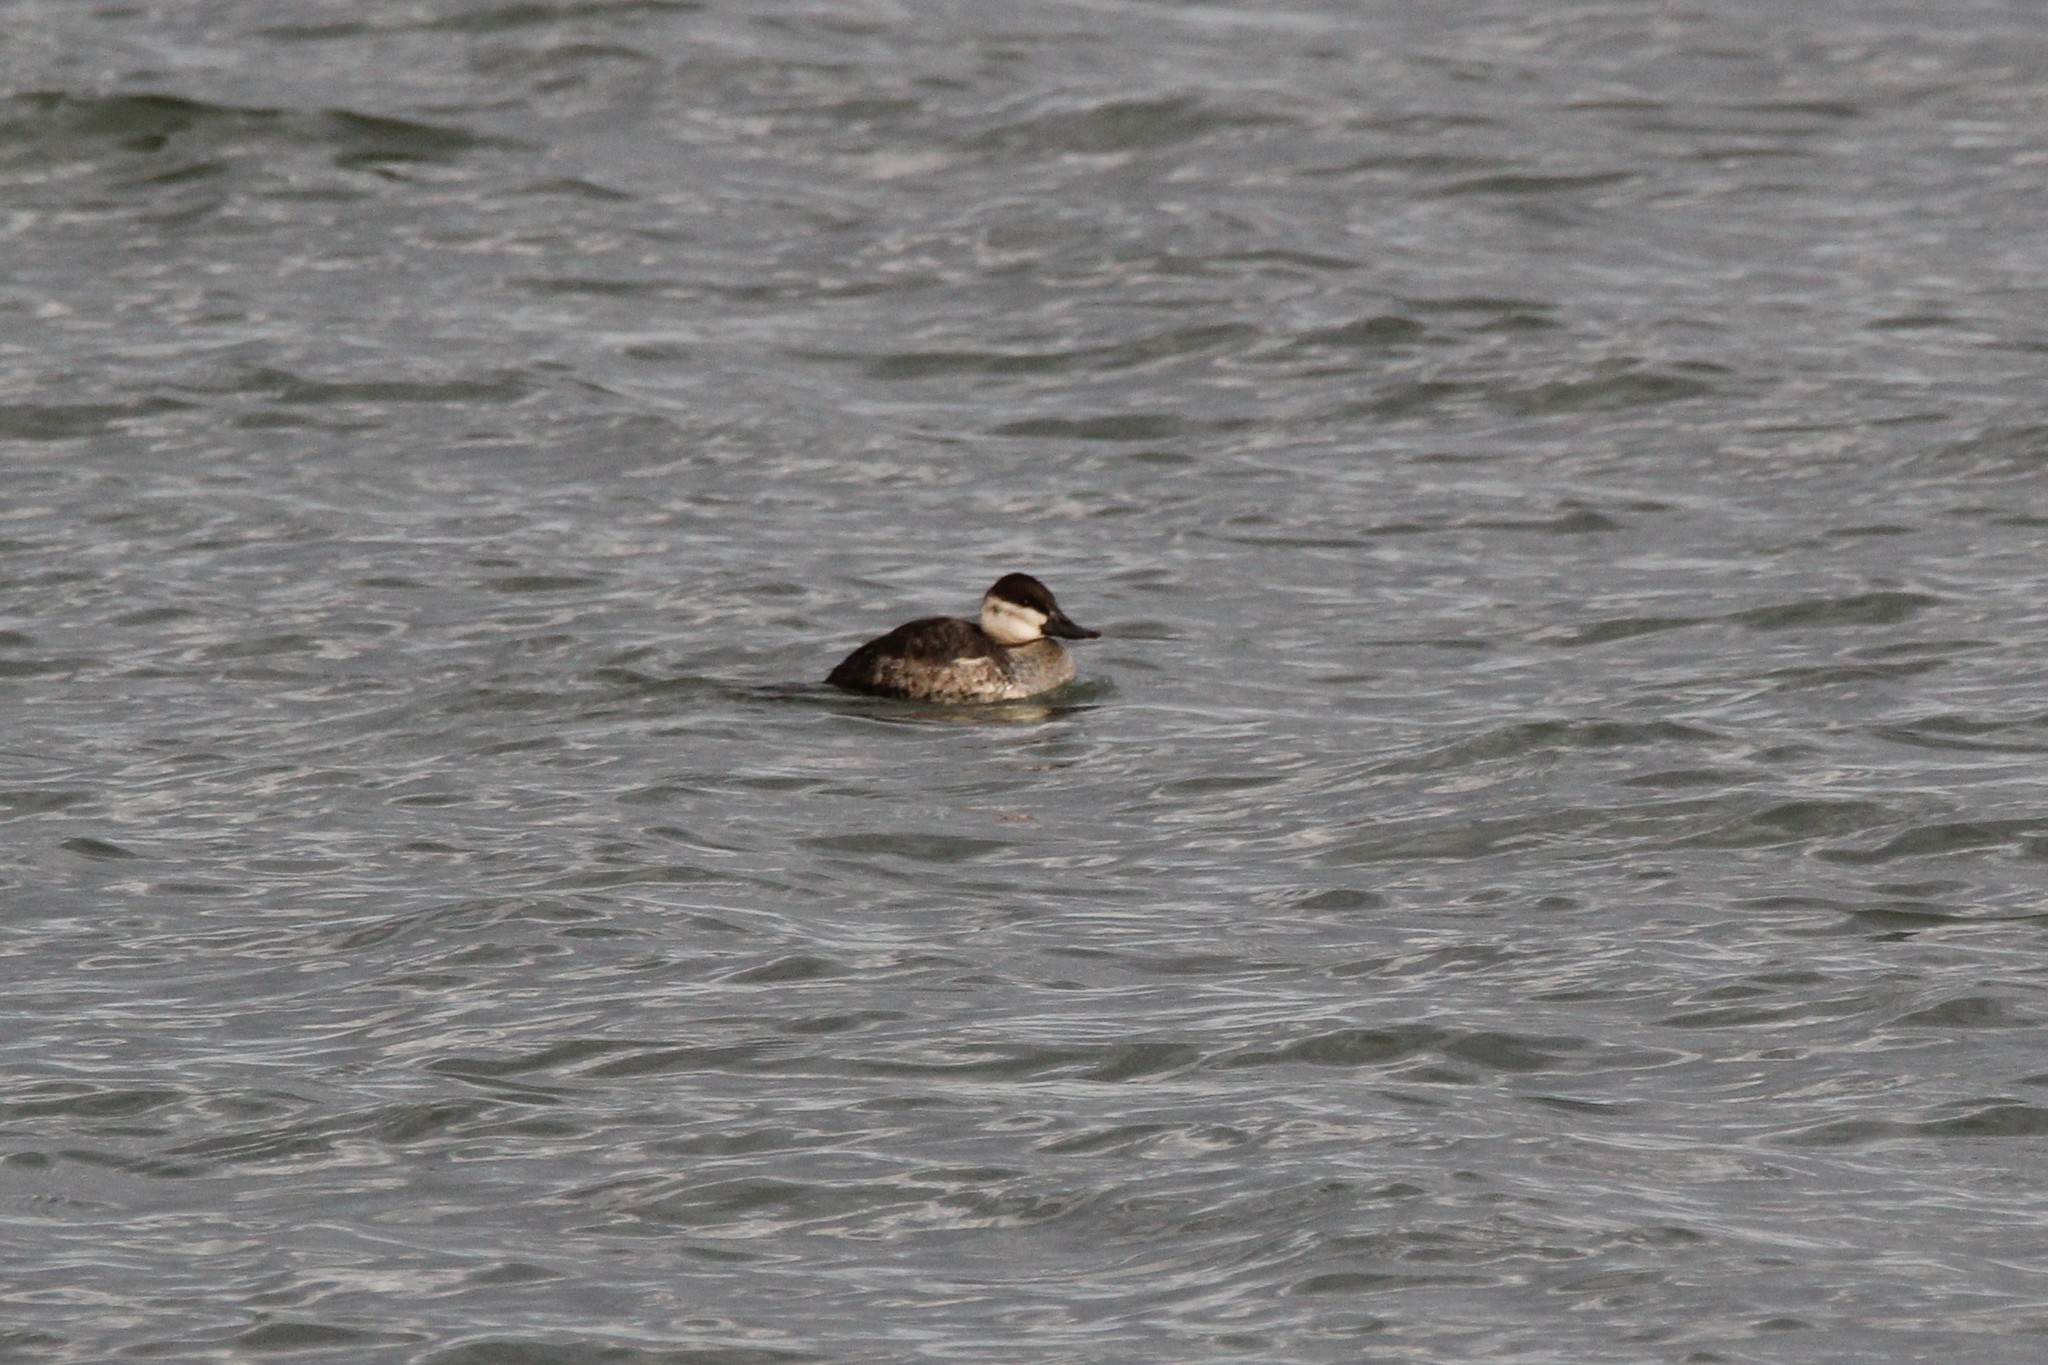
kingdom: Animalia
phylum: Chordata
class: Aves
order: Anseriformes
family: Anatidae
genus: Oxyura
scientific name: Oxyura jamaicensis
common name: Ruddy duck
